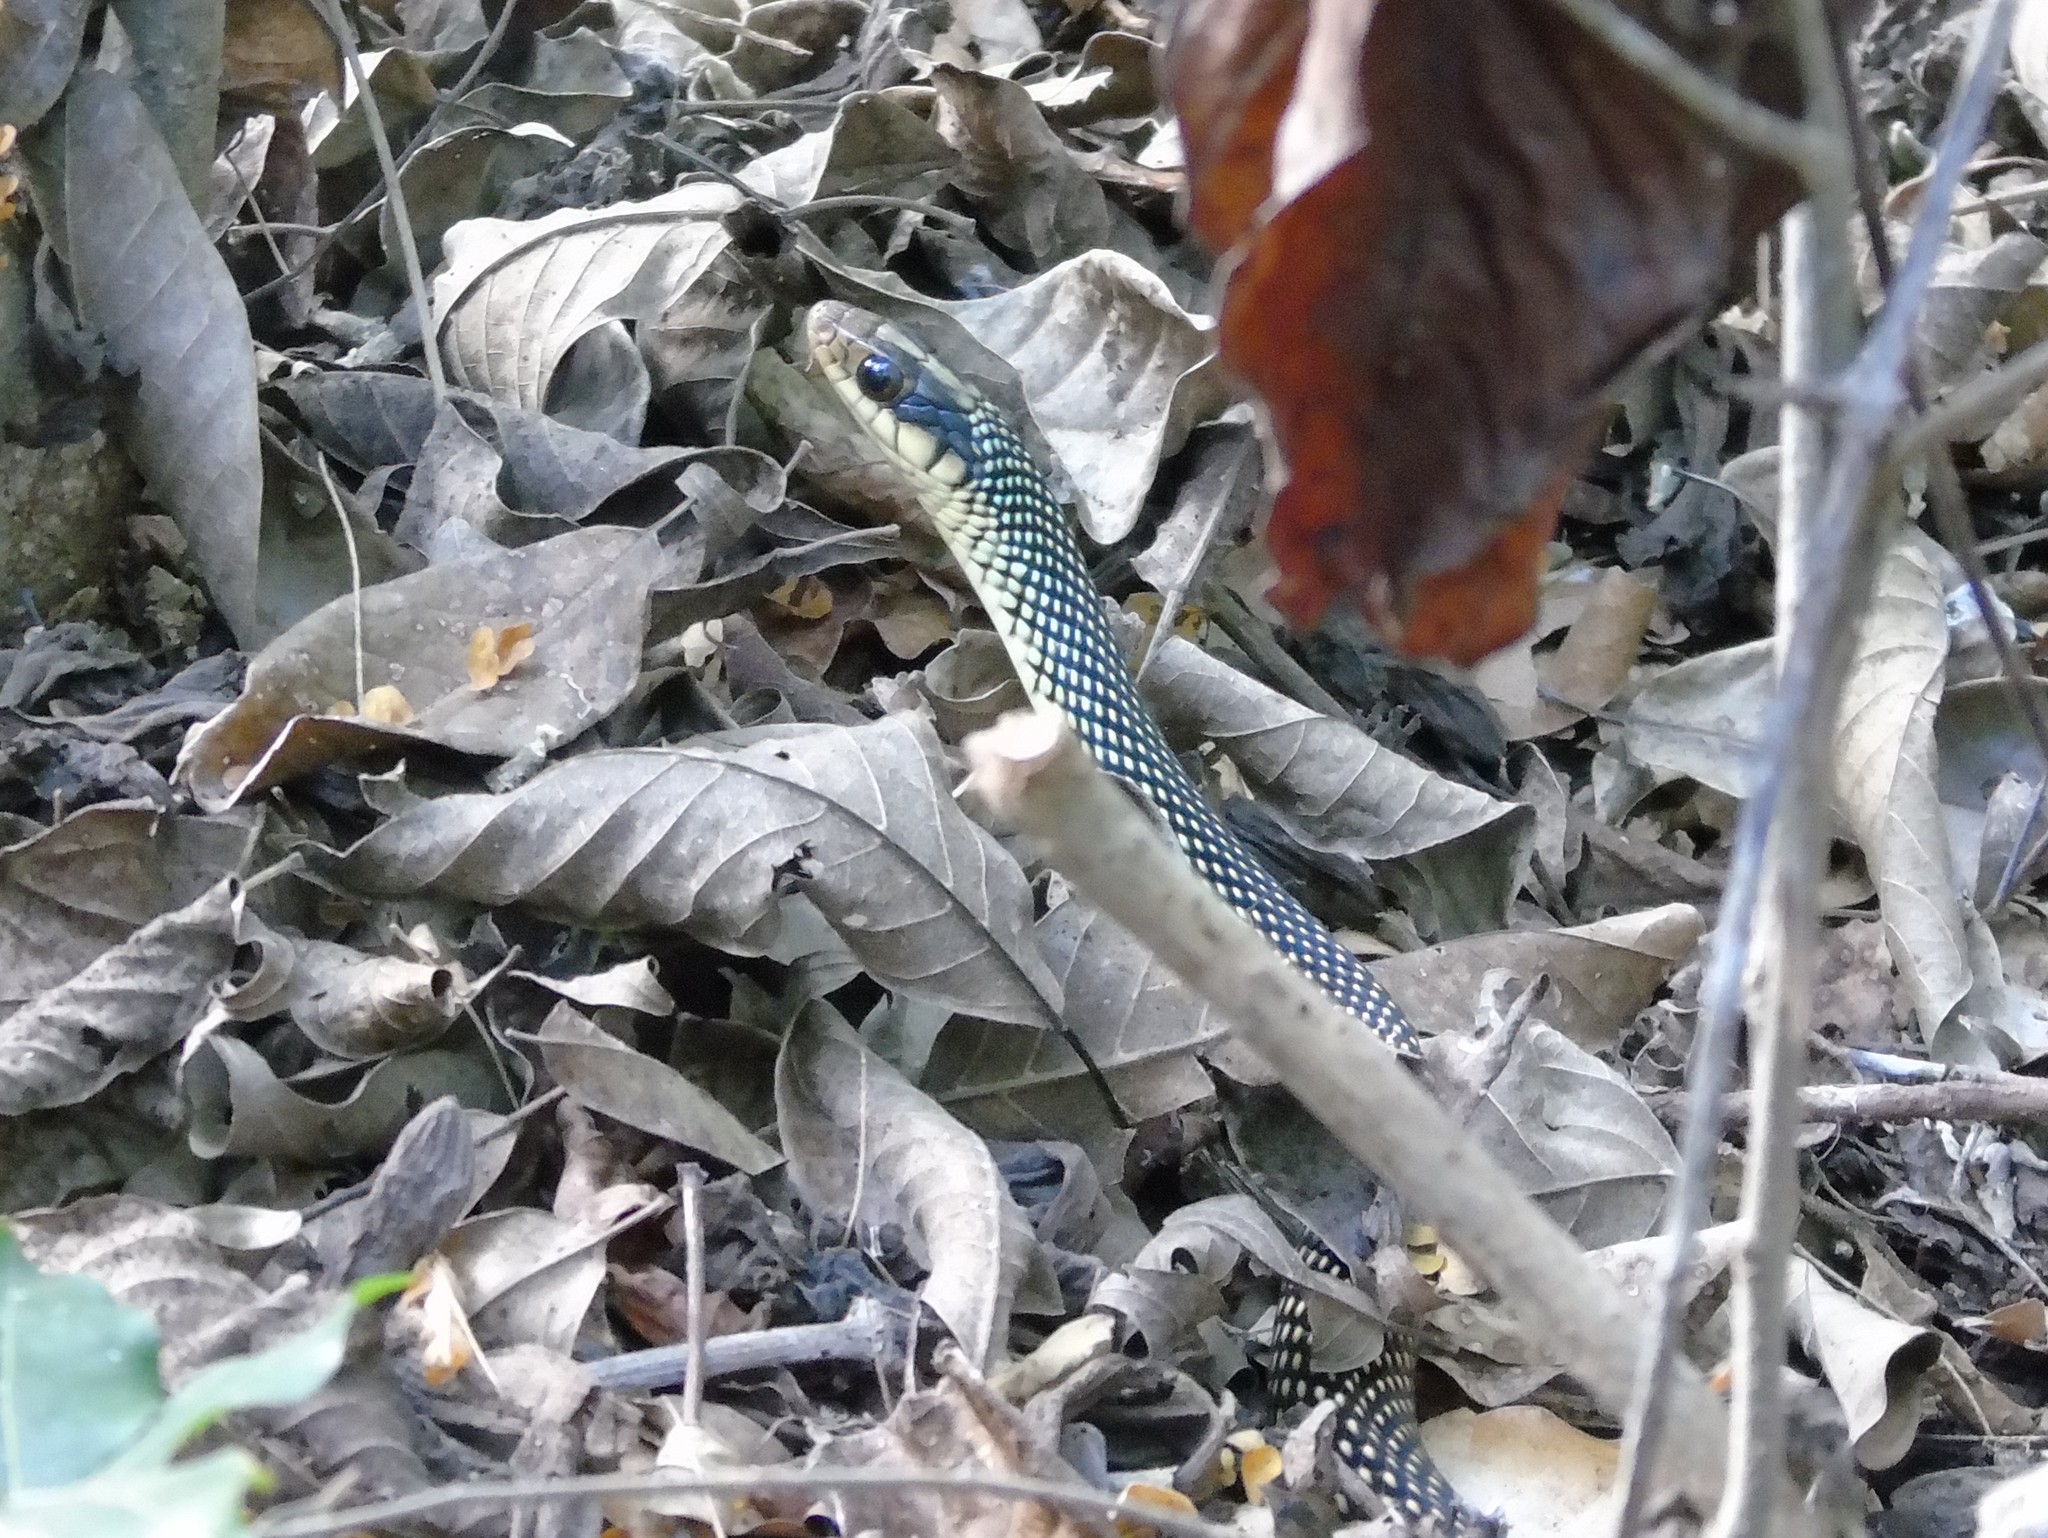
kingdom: Animalia
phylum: Chordata
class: Squamata
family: Colubridae
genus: Drymobius
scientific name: Drymobius margaritiferus
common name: Central american speckled racer
